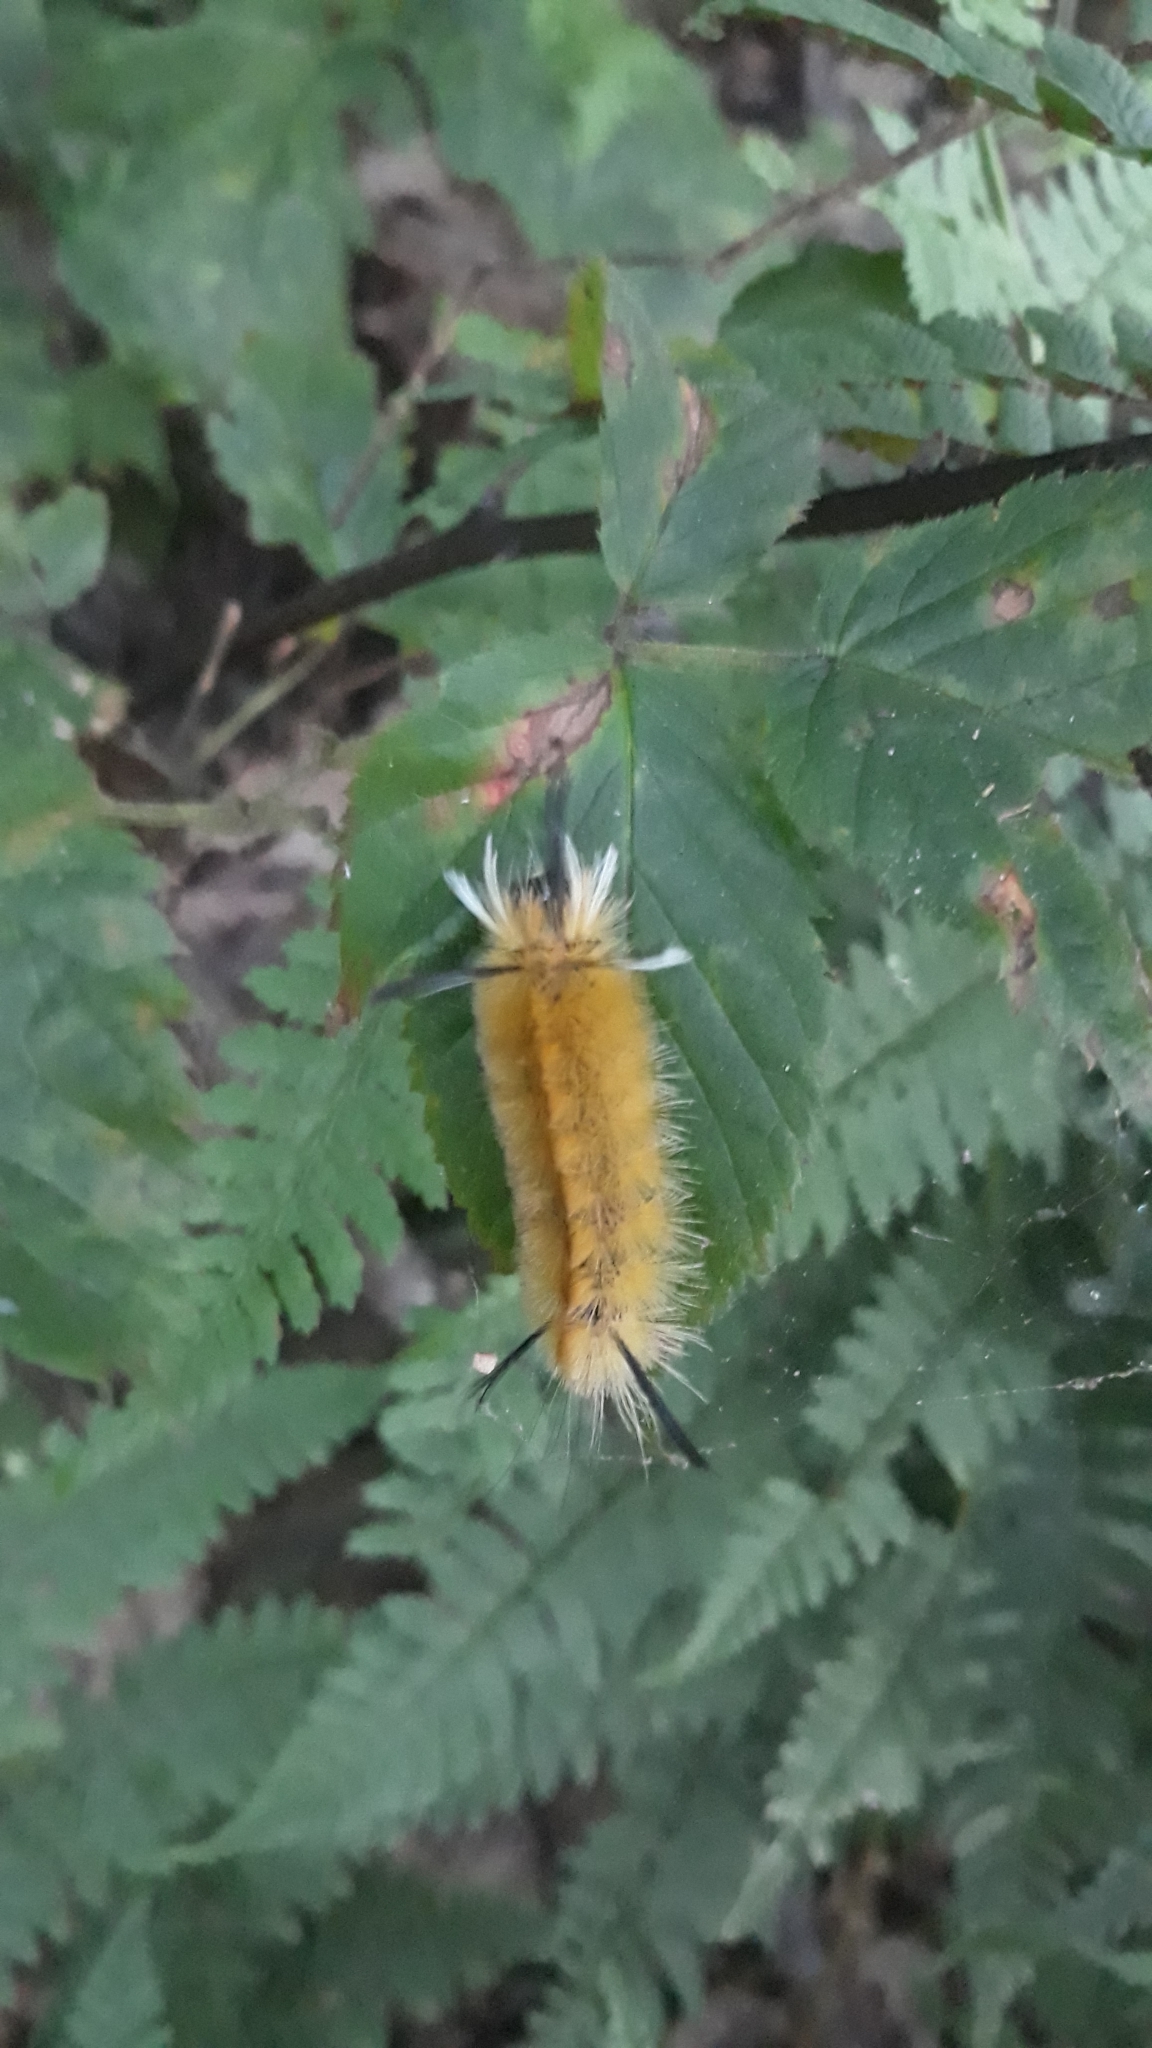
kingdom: Animalia
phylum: Arthropoda
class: Insecta
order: Lepidoptera
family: Erebidae
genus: Halysidota
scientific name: Halysidota tessellaris
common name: Banded tussock moth
